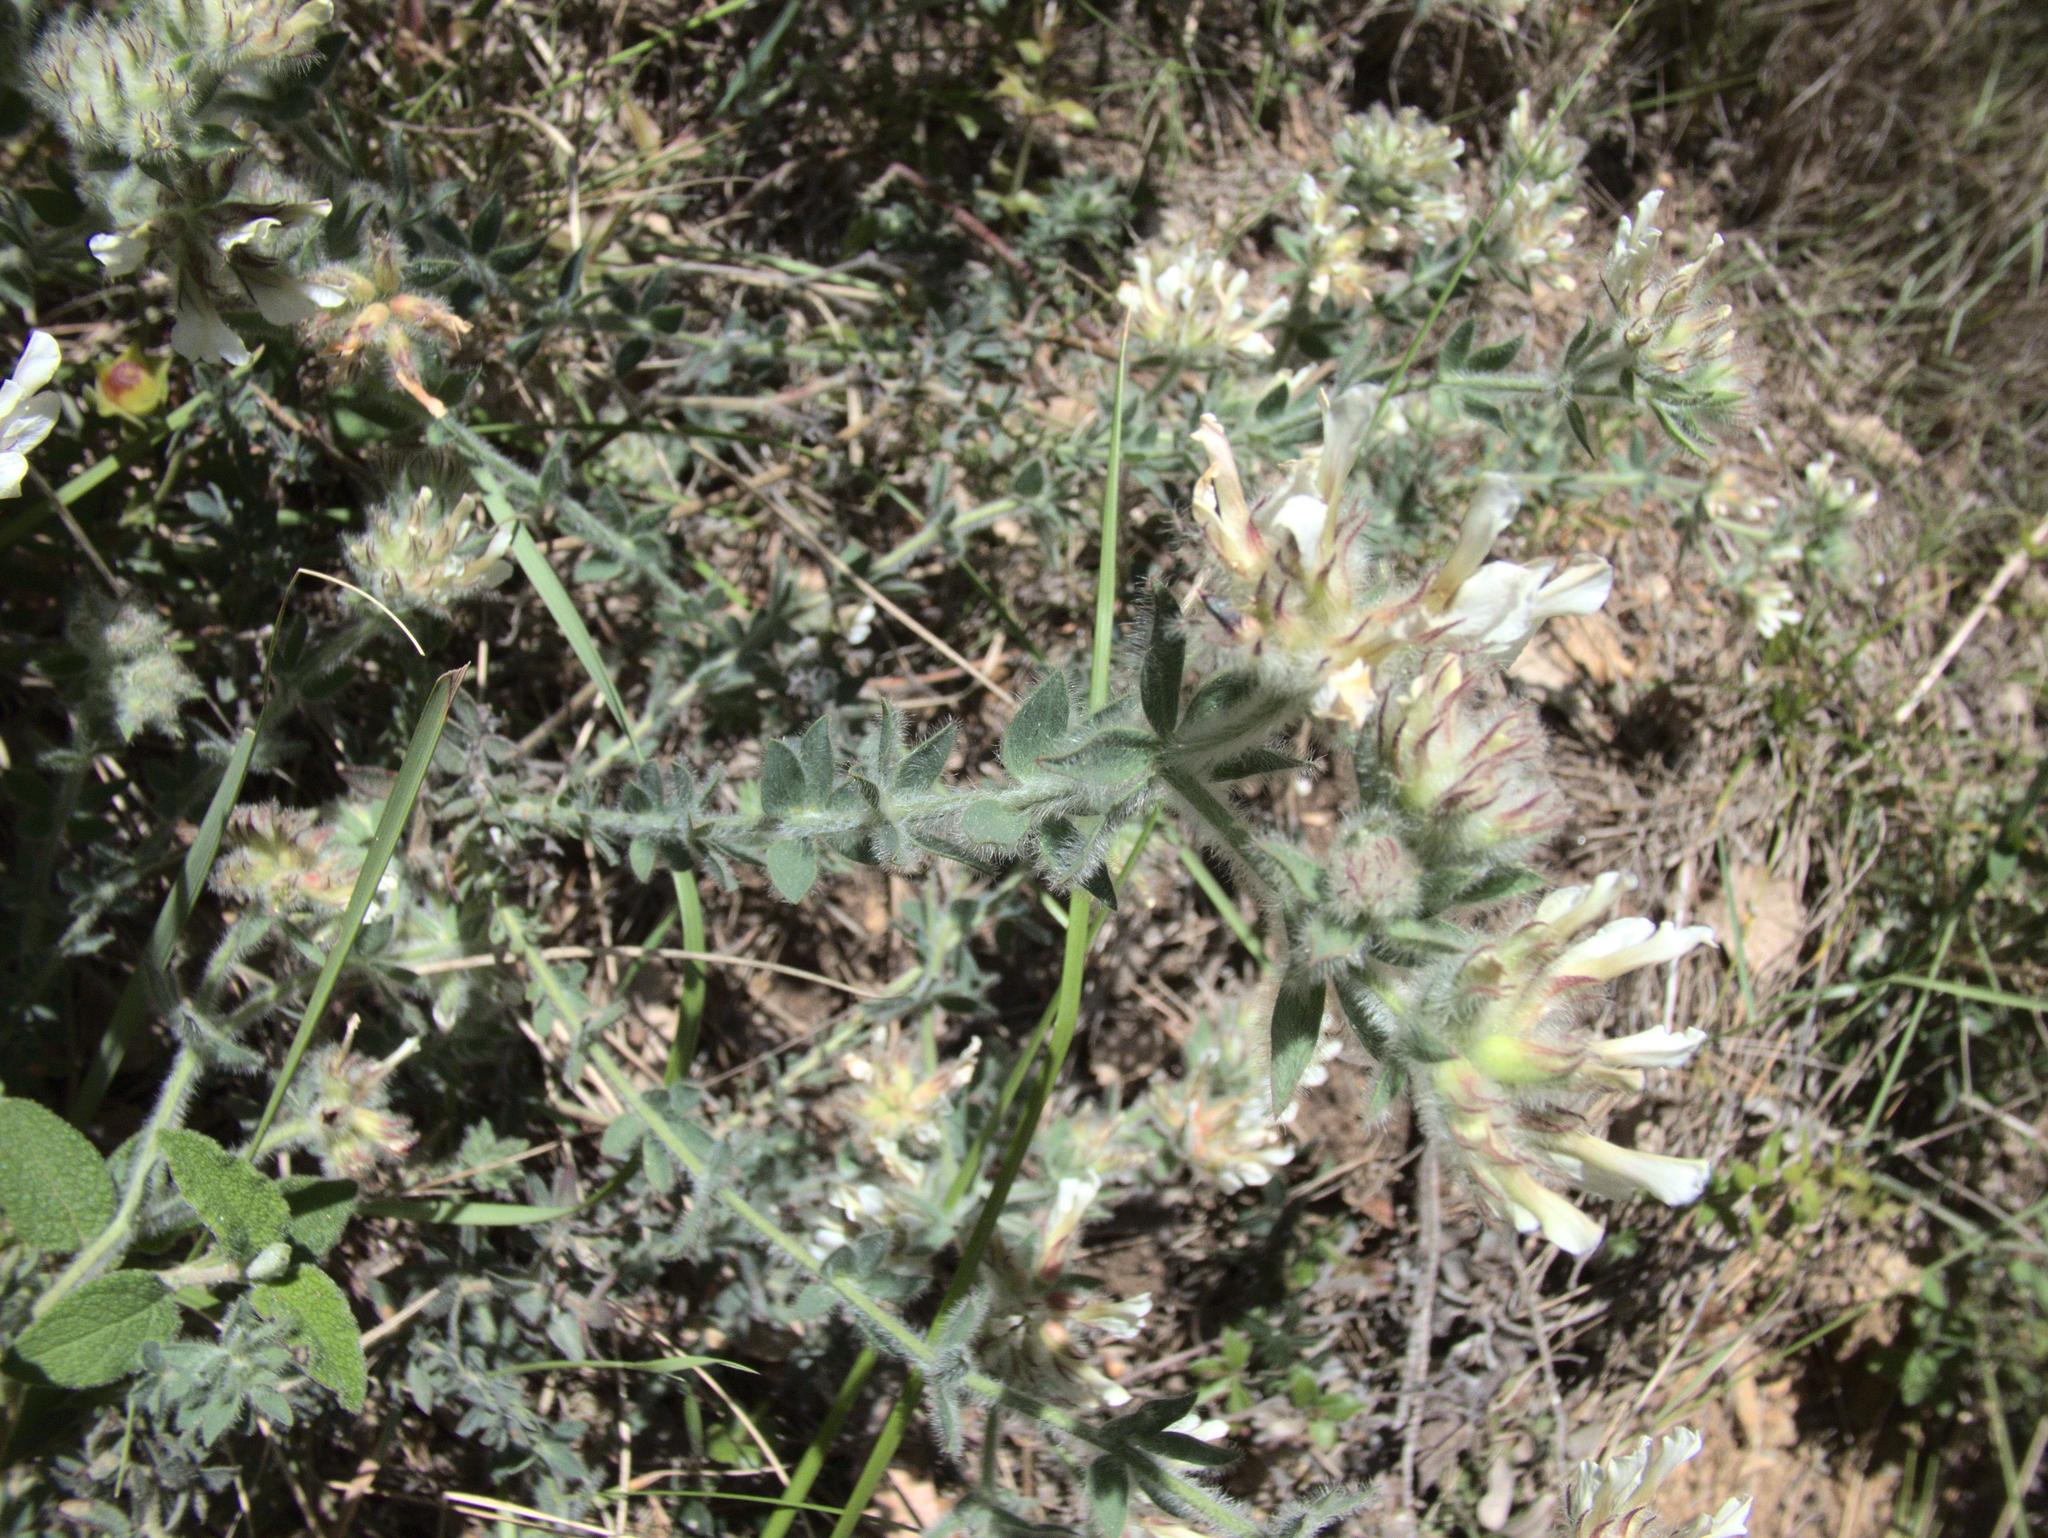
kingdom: Plantae
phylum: Tracheophyta
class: Magnoliopsida
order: Fabales
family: Fabaceae
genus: Lotus
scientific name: Lotus hirsutus
